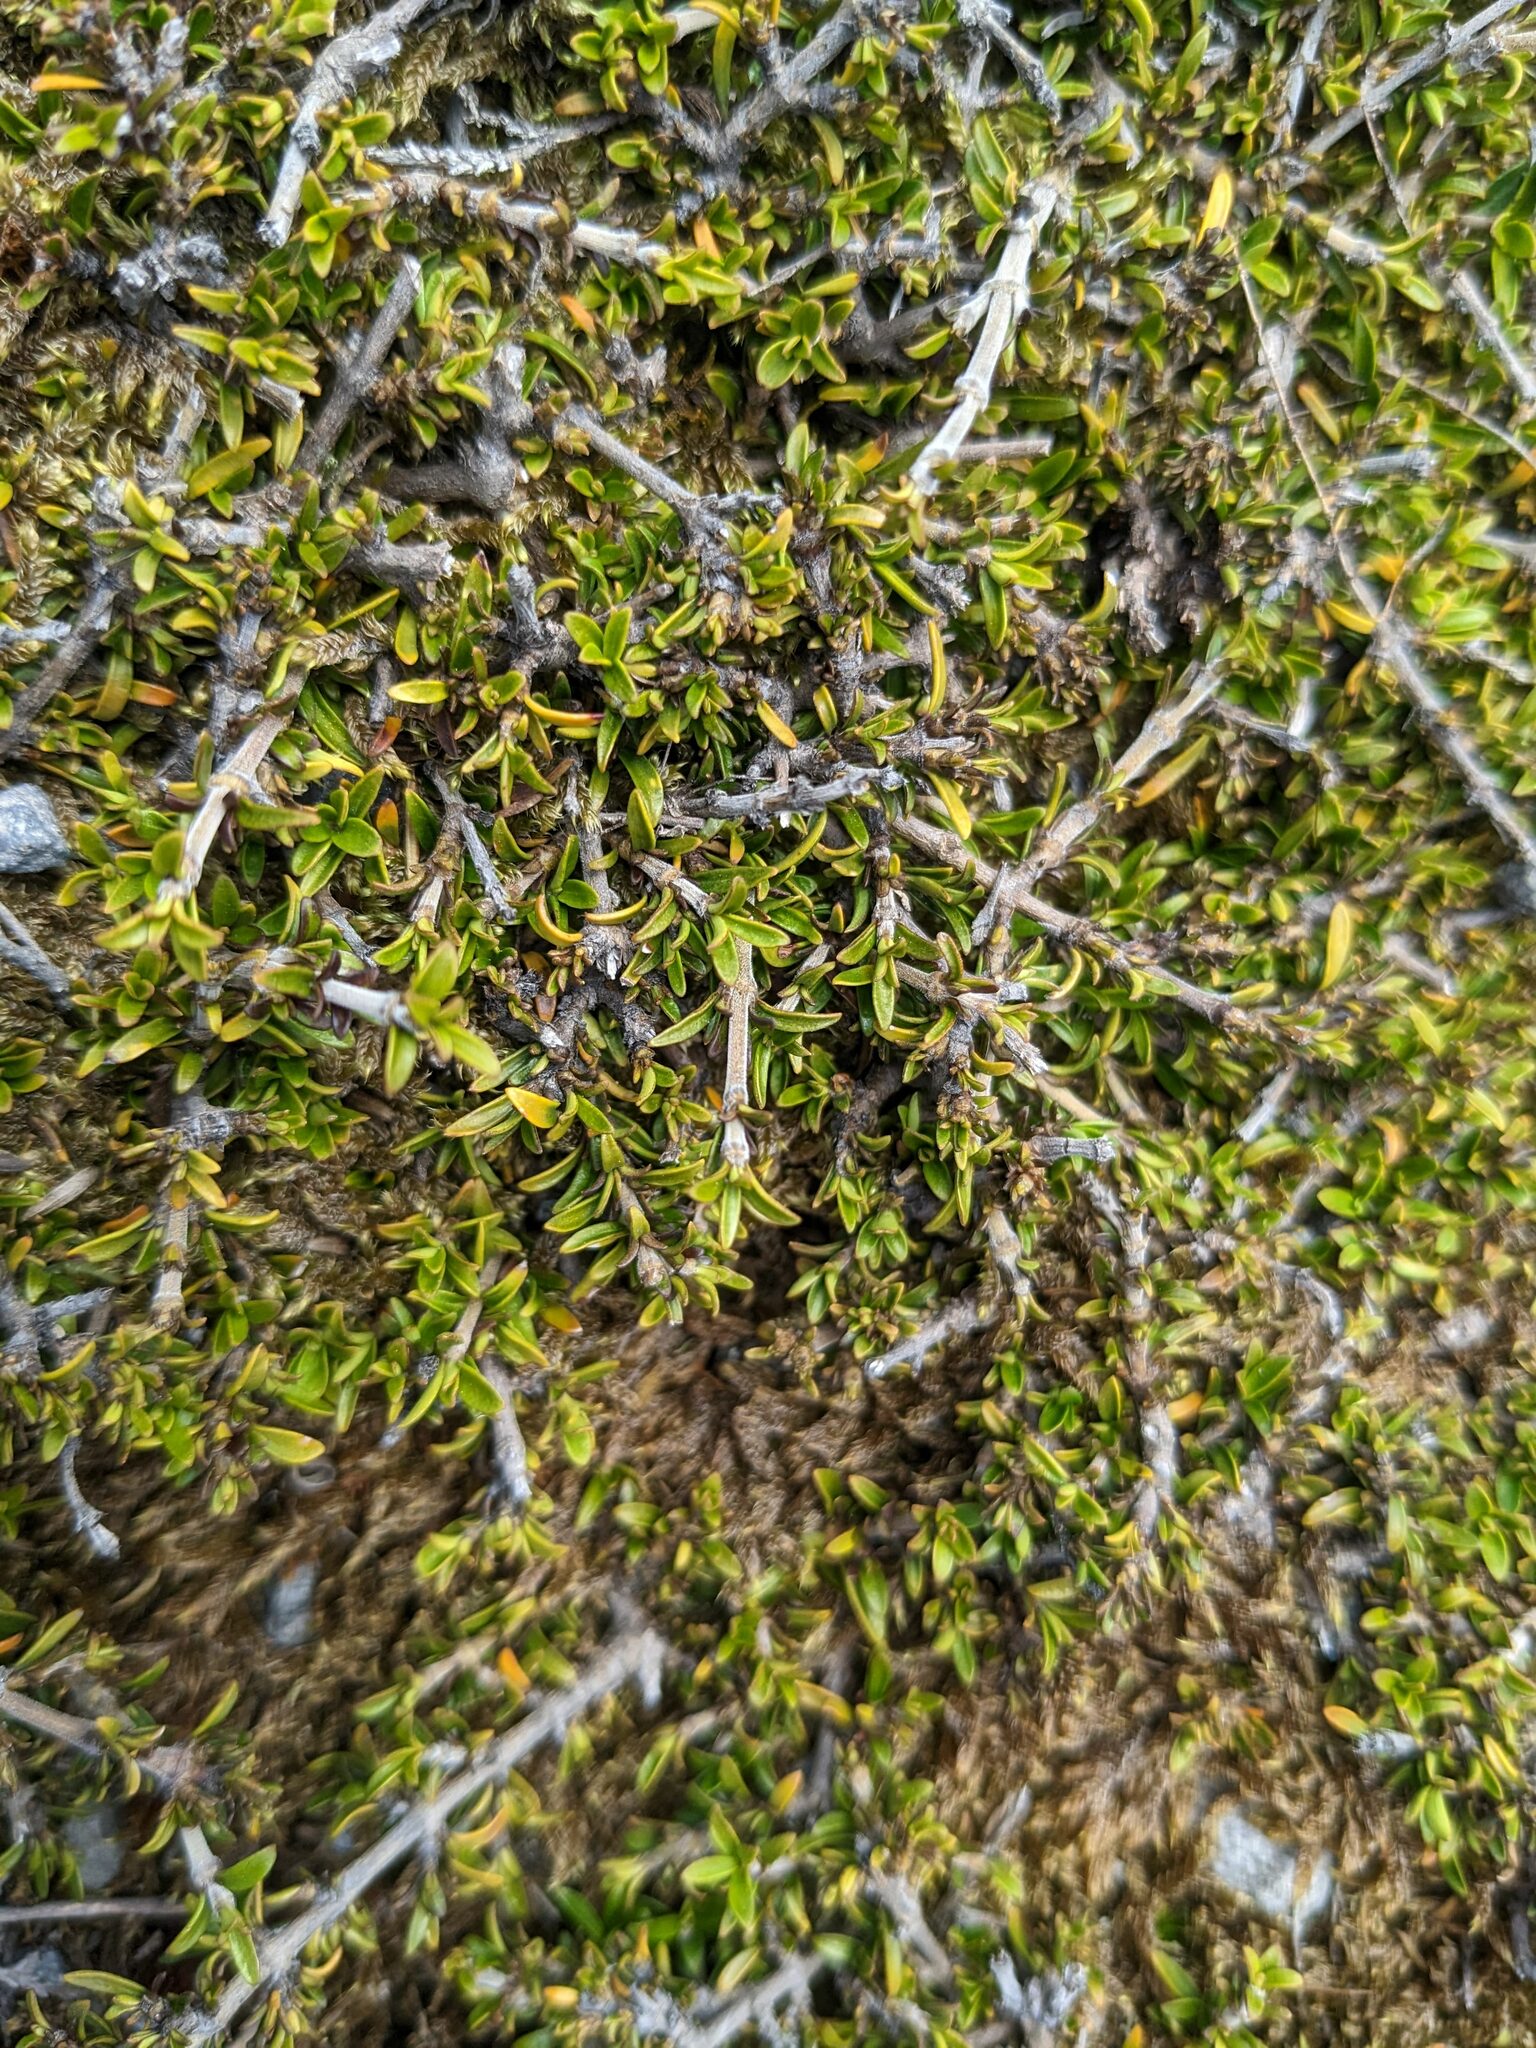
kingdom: Plantae
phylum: Tracheophyta
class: Magnoliopsida
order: Gentianales
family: Rubiaceae
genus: Coprosma
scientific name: Coprosma cheesemanii
